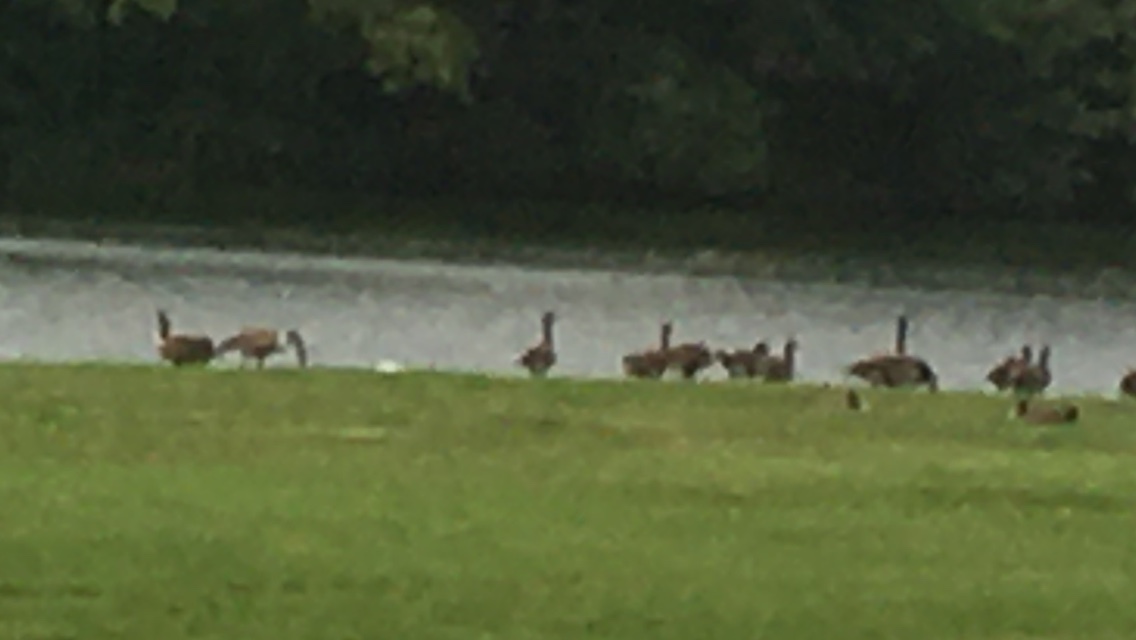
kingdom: Animalia
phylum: Chordata
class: Aves
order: Anseriformes
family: Anatidae
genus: Branta
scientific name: Branta canadensis
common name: Canada goose
